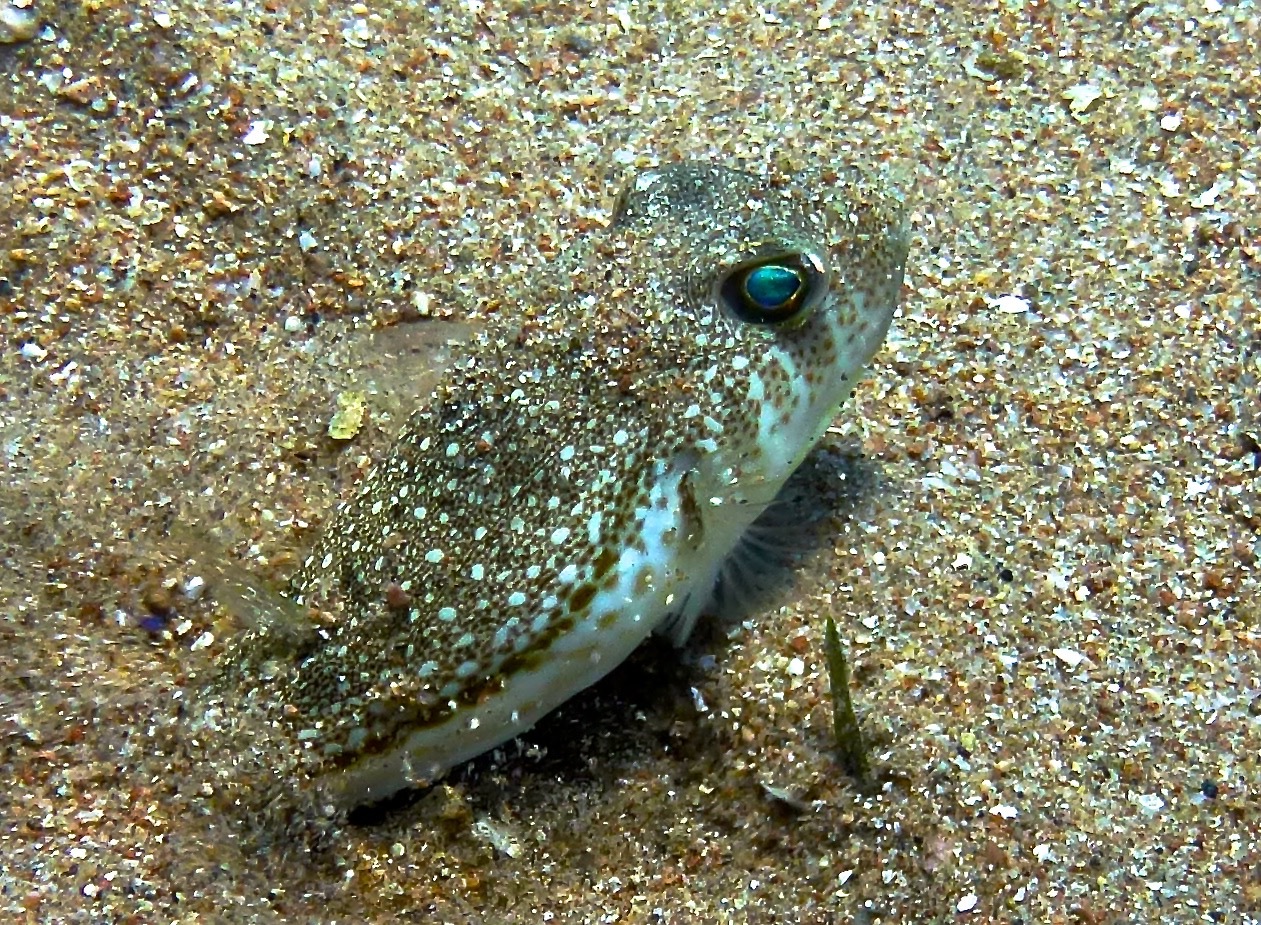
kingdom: Animalia
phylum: Chordata
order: Tetraodontiformes
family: Tetraodontidae
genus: Torquigener
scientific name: Torquigener flavimaculosus
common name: Studded pufferfish
